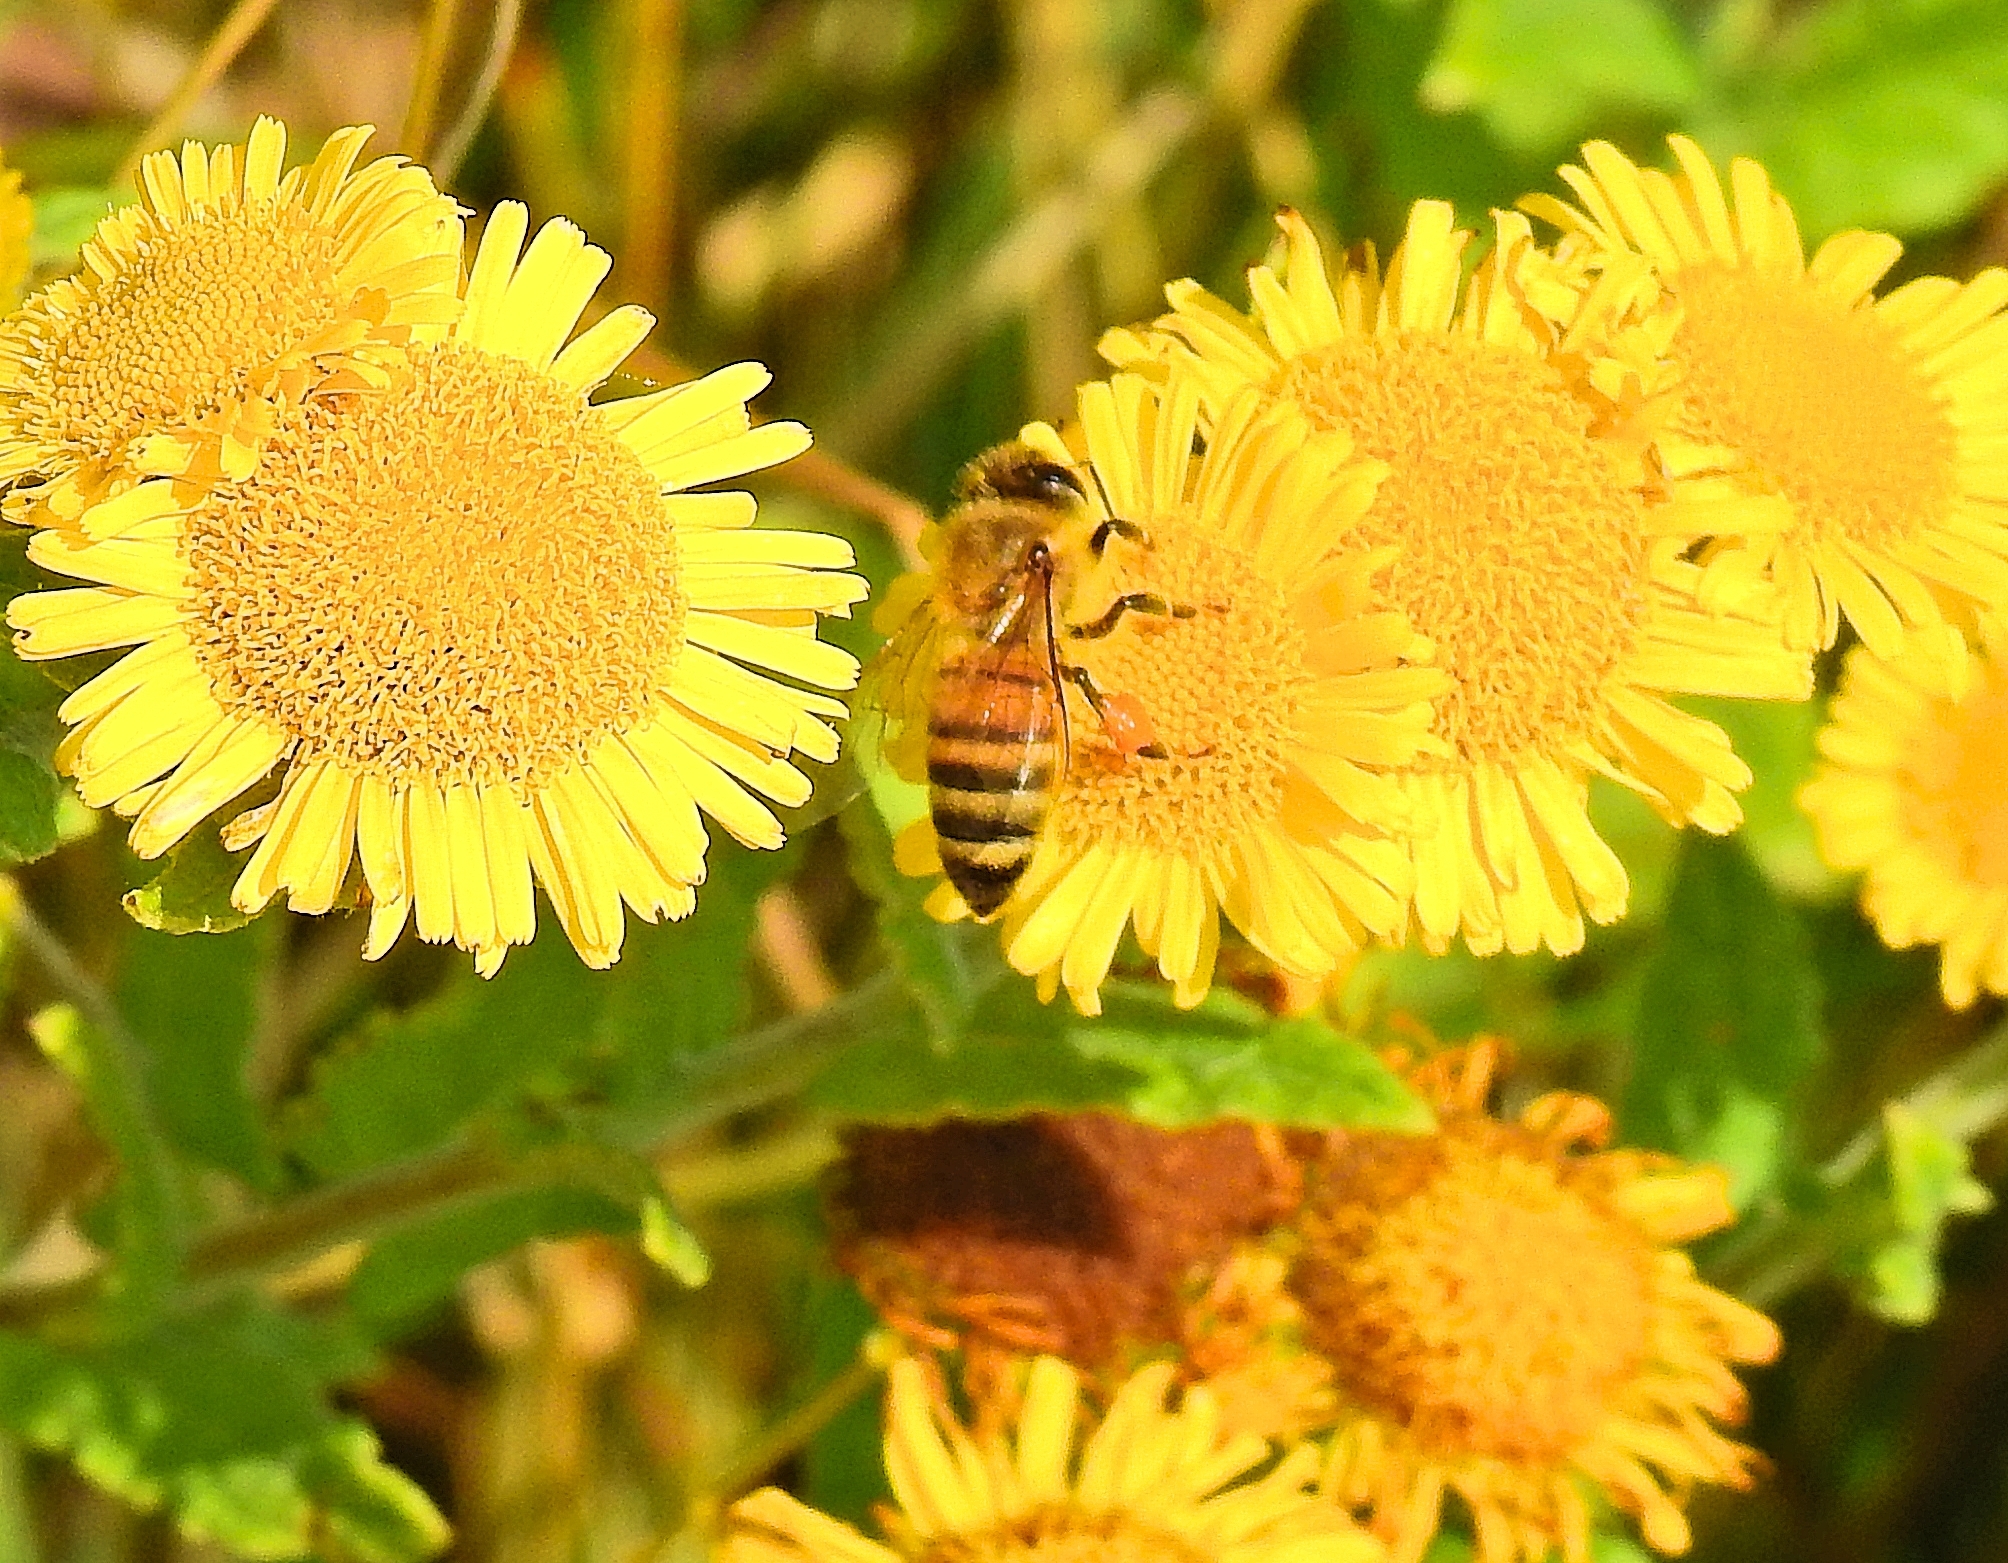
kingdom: Animalia
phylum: Arthropoda
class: Insecta
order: Hymenoptera
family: Apidae
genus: Apis
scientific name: Apis mellifera
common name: Honey bee
